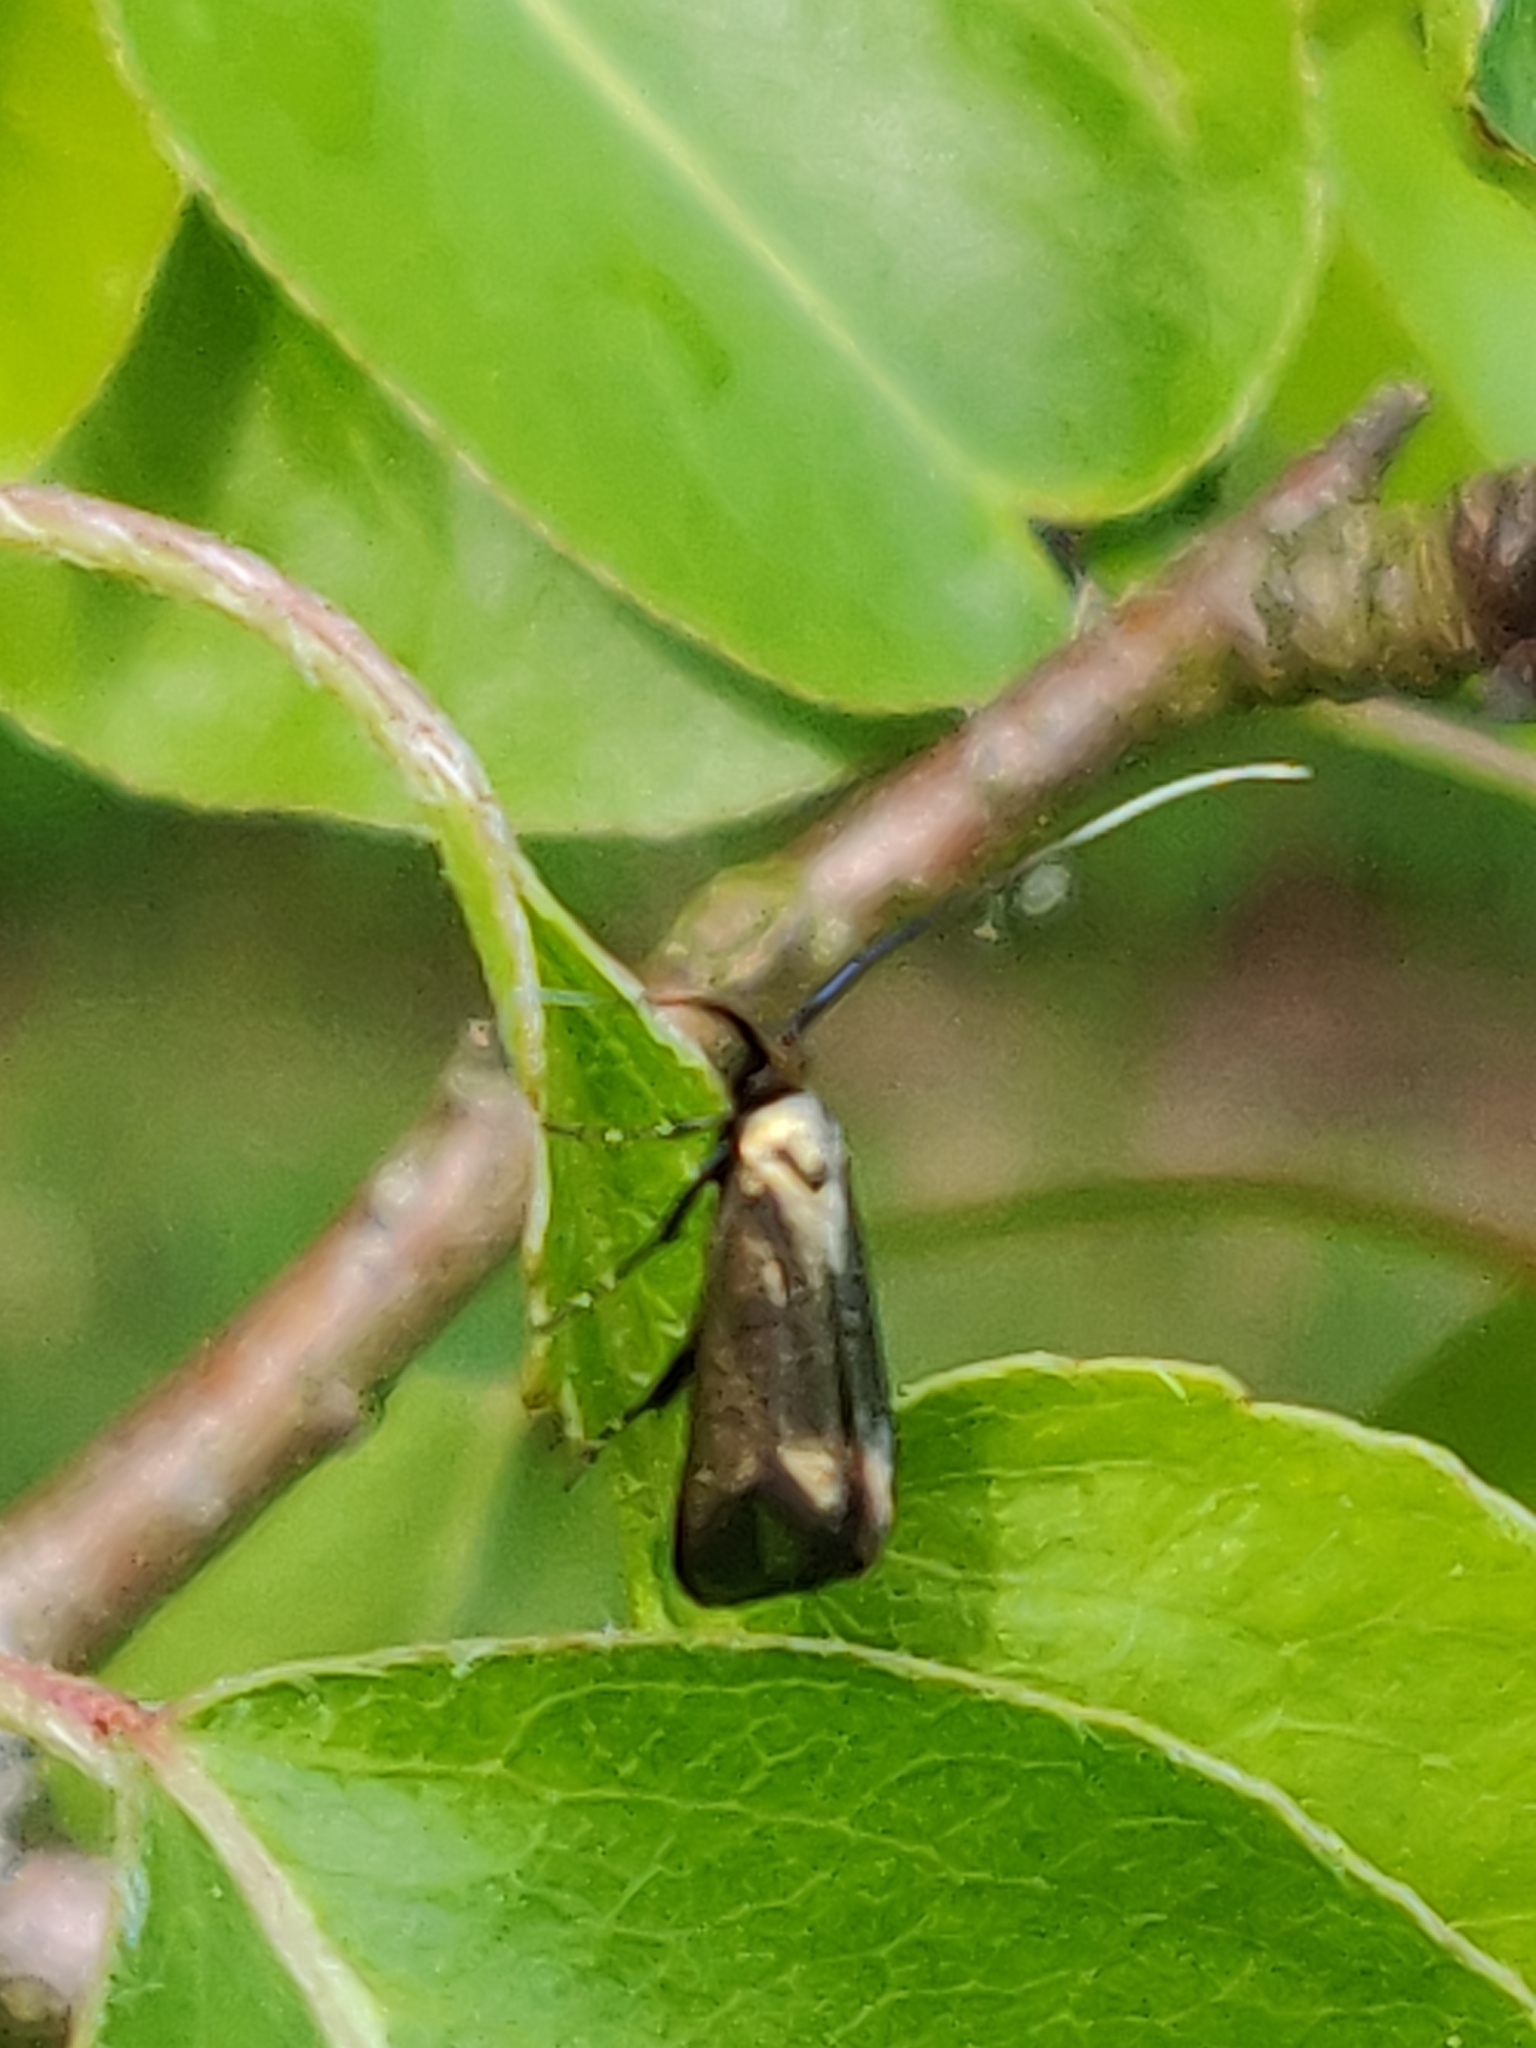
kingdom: Animalia
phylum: Arthropoda
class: Insecta
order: Lepidoptera
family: Adelidae
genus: Adela
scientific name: Adela viridella
